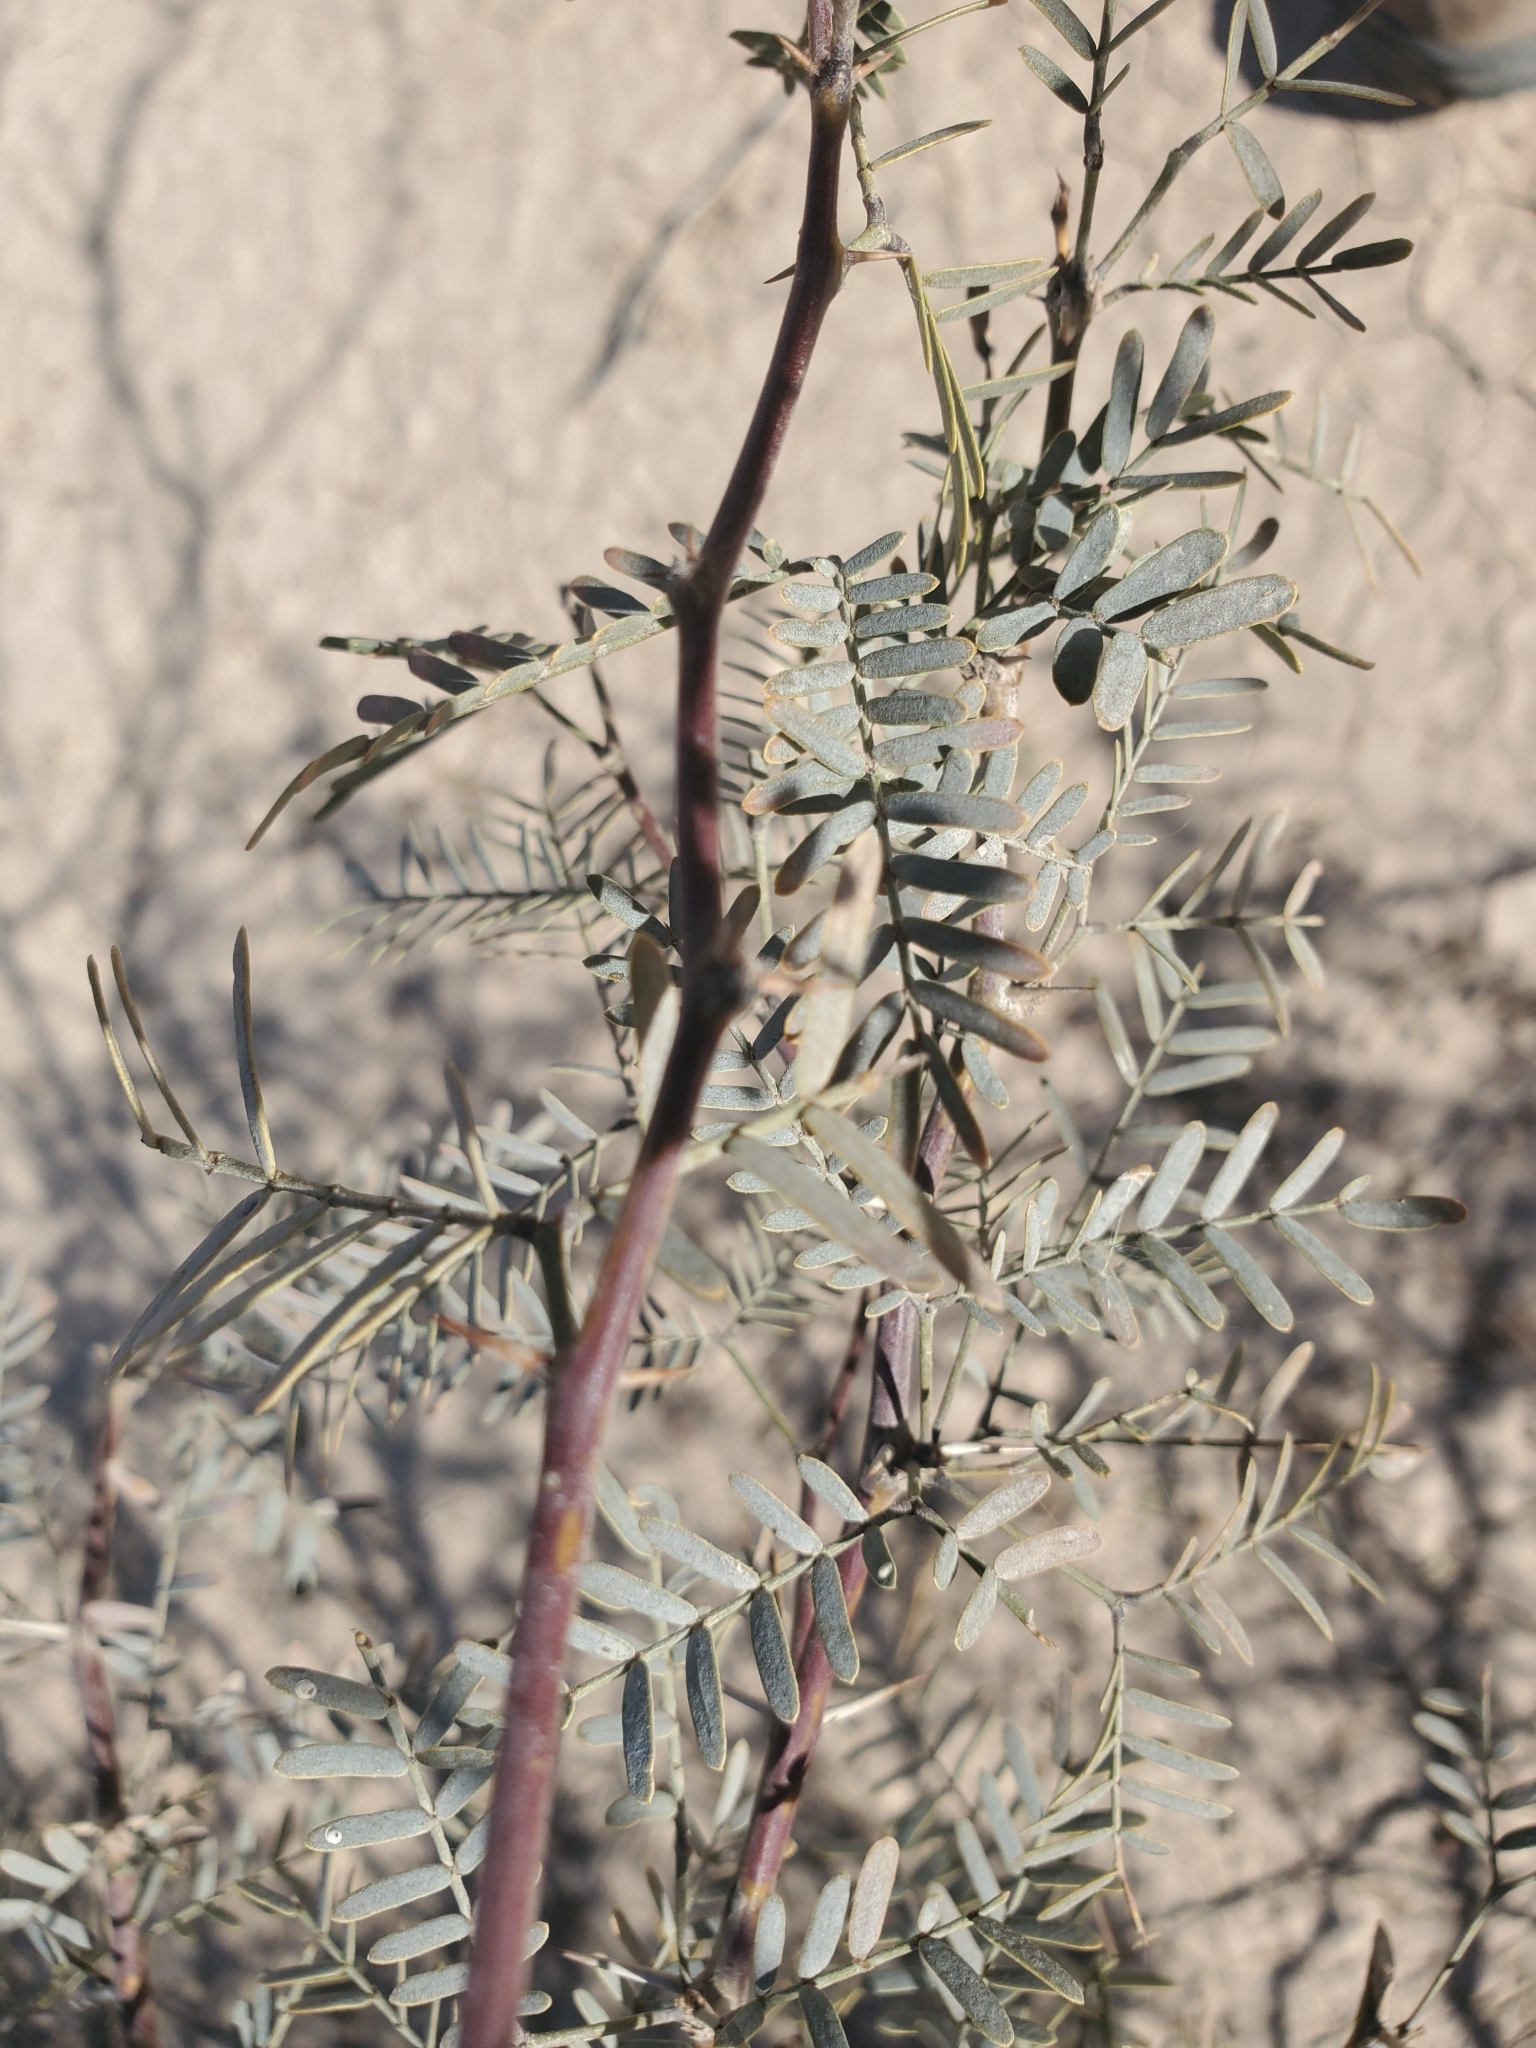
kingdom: Plantae
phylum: Tracheophyta
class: Magnoliopsida
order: Fabales
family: Fabaceae
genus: Prosopis
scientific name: Prosopis pubescens
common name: Screw-bean
